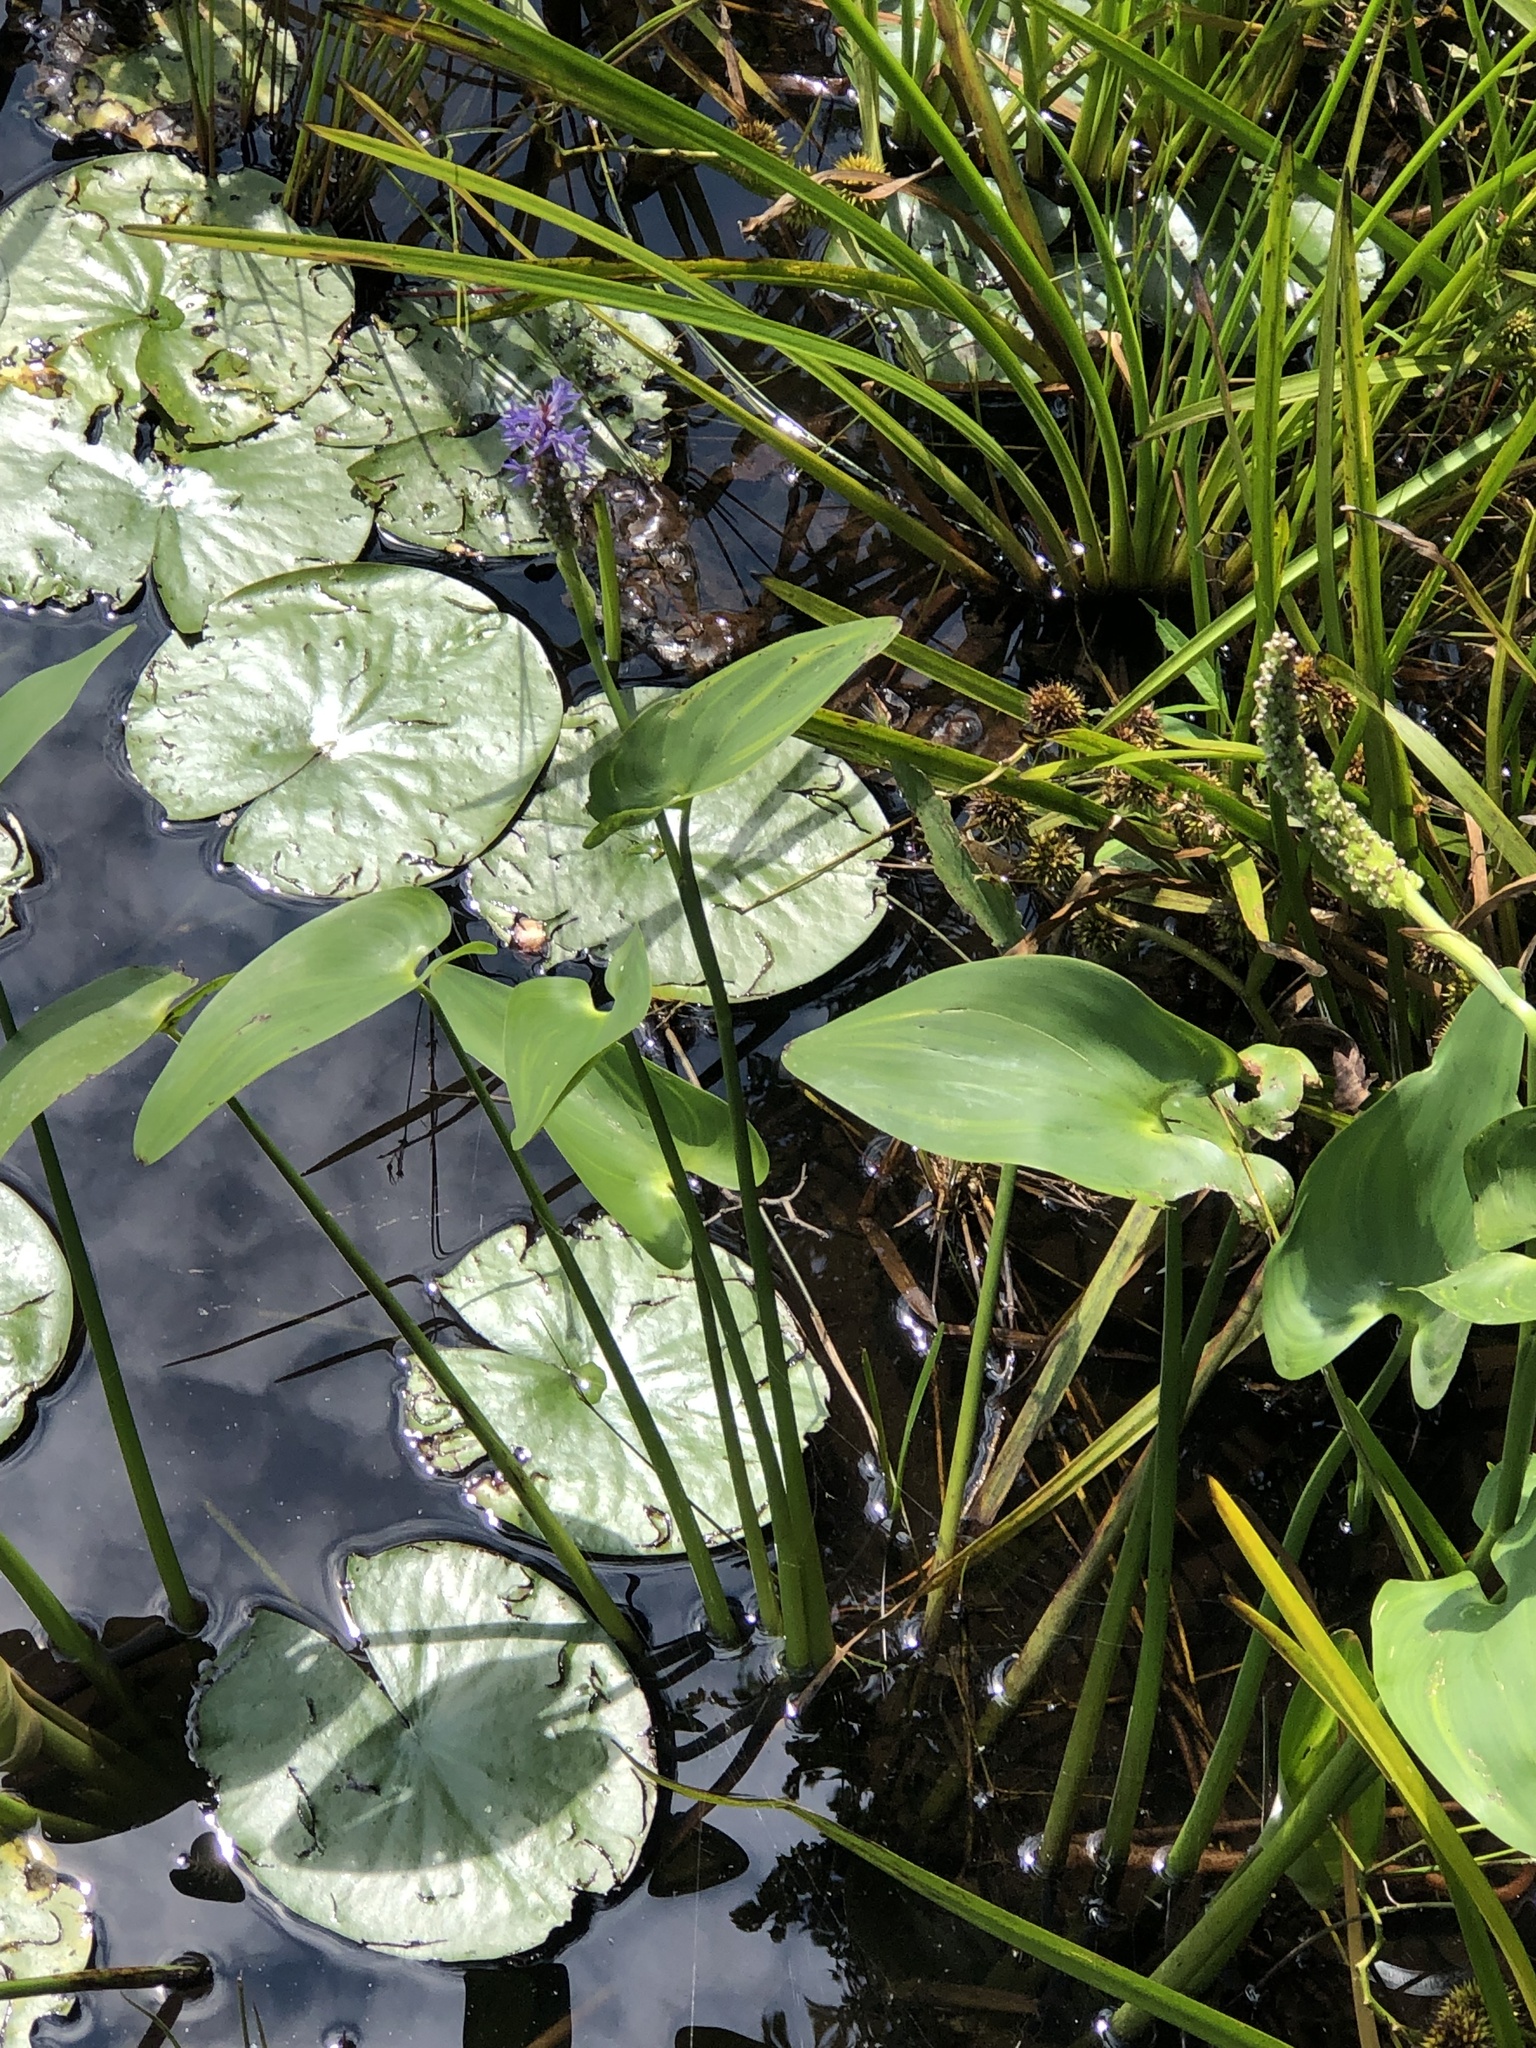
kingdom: Plantae
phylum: Tracheophyta
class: Liliopsida
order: Commelinales
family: Pontederiaceae
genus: Pontederia
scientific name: Pontederia cordata
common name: Pickerelweed
